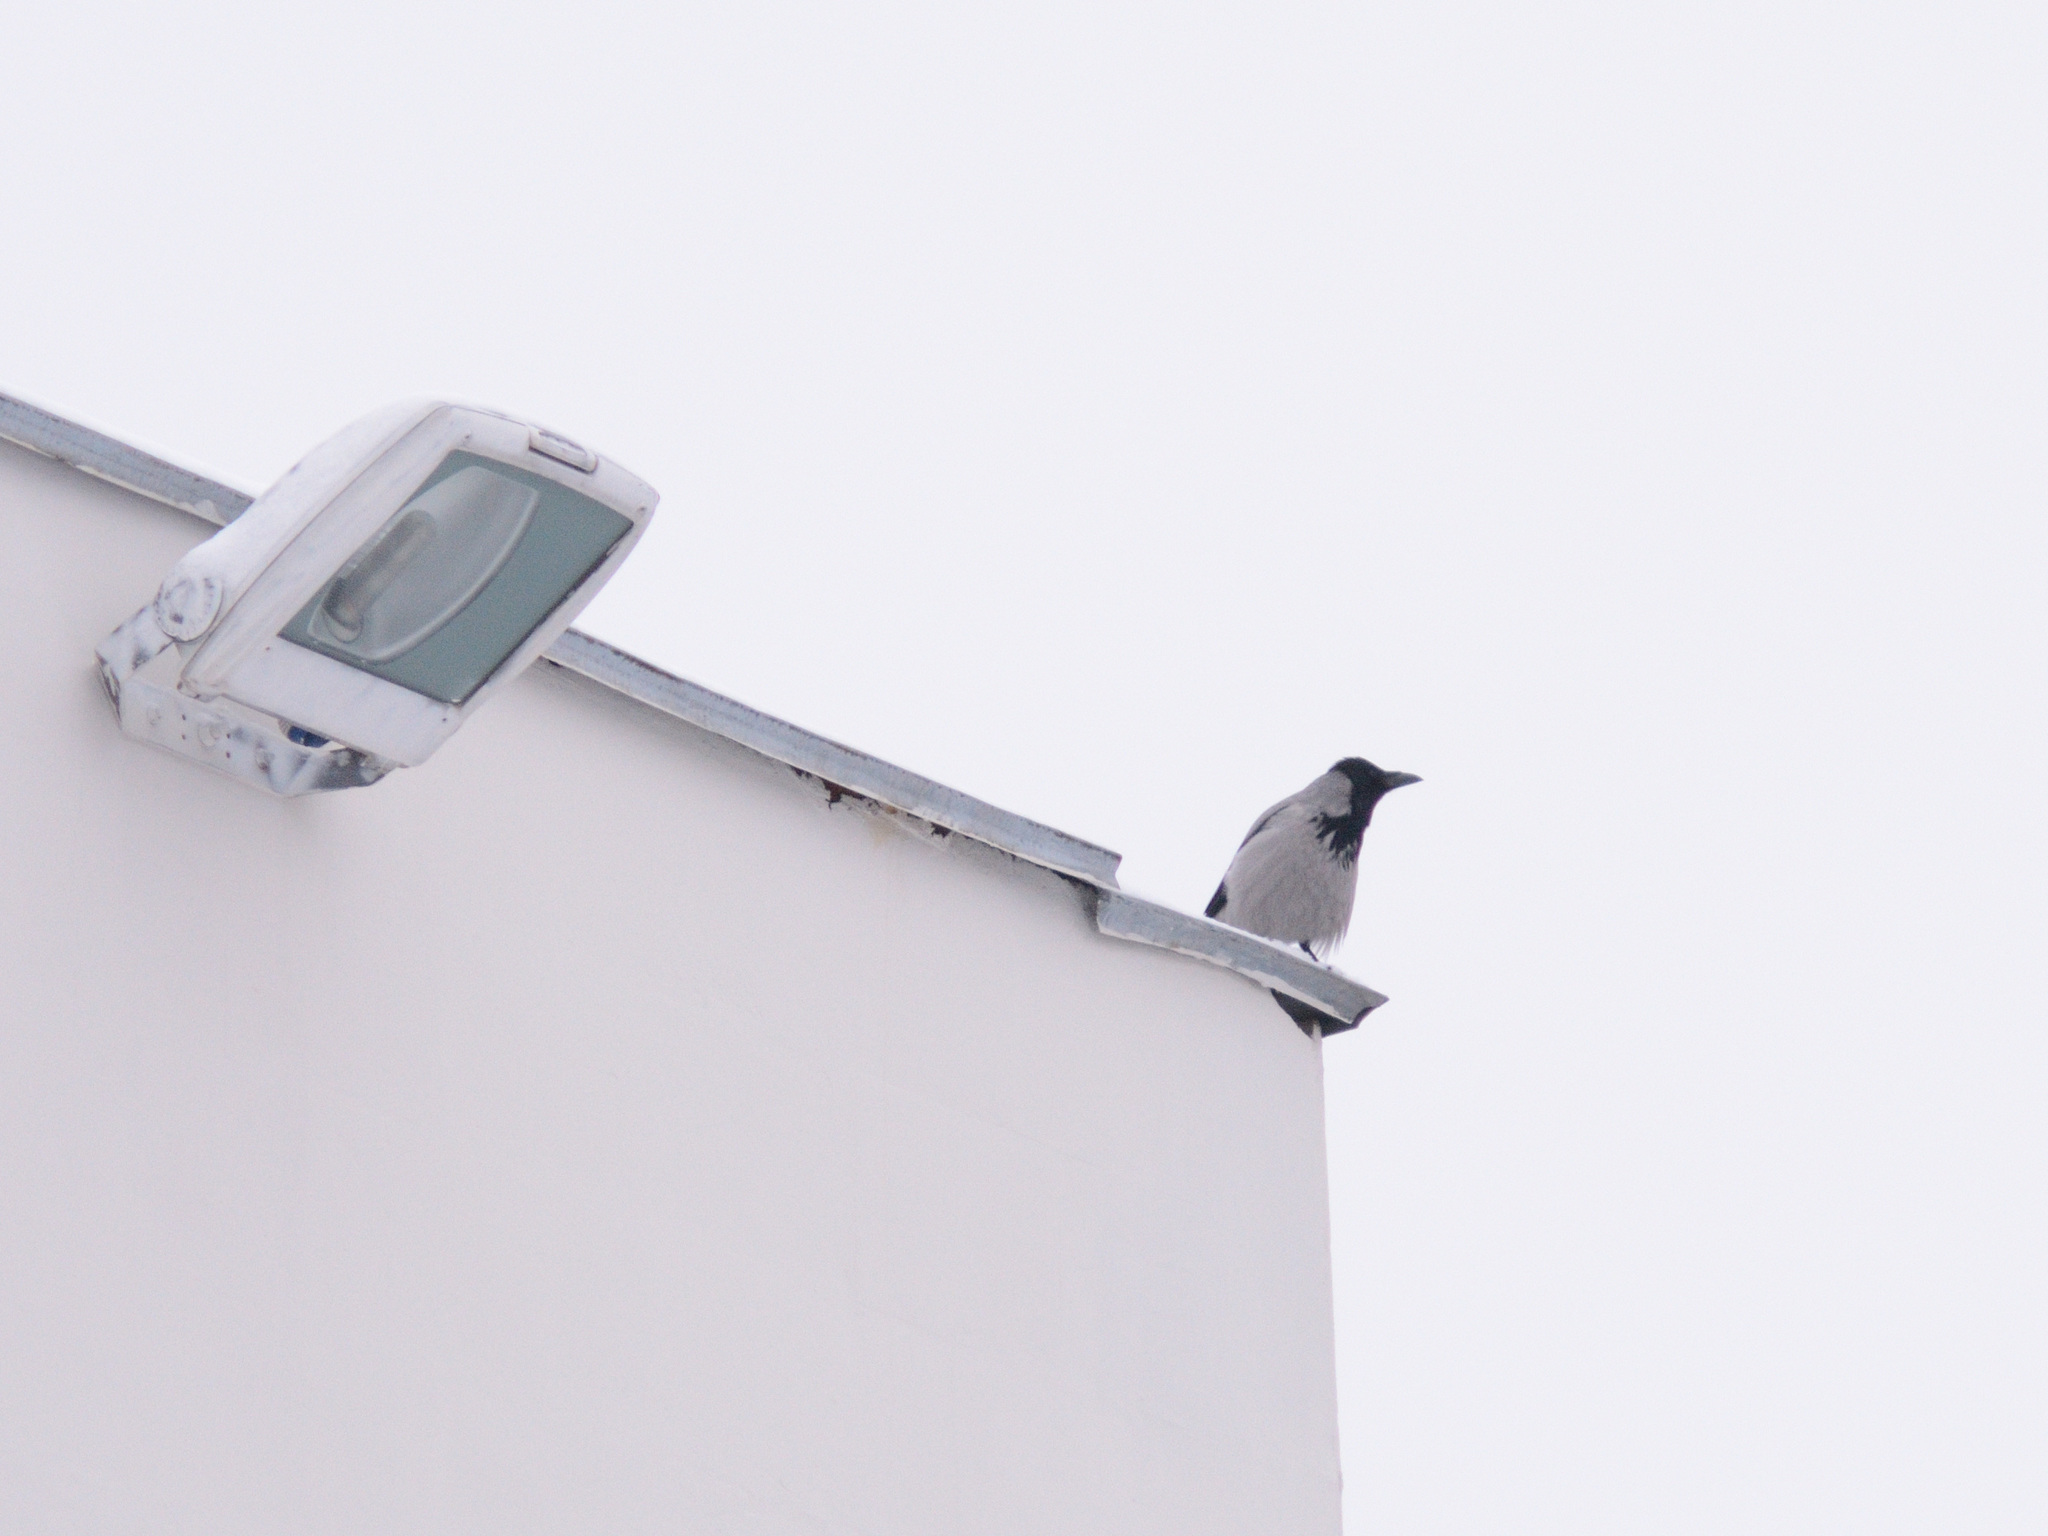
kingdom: Animalia
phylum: Chordata
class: Aves
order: Passeriformes
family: Corvidae
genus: Corvus
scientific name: Corvus cornix
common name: Hooded crow
